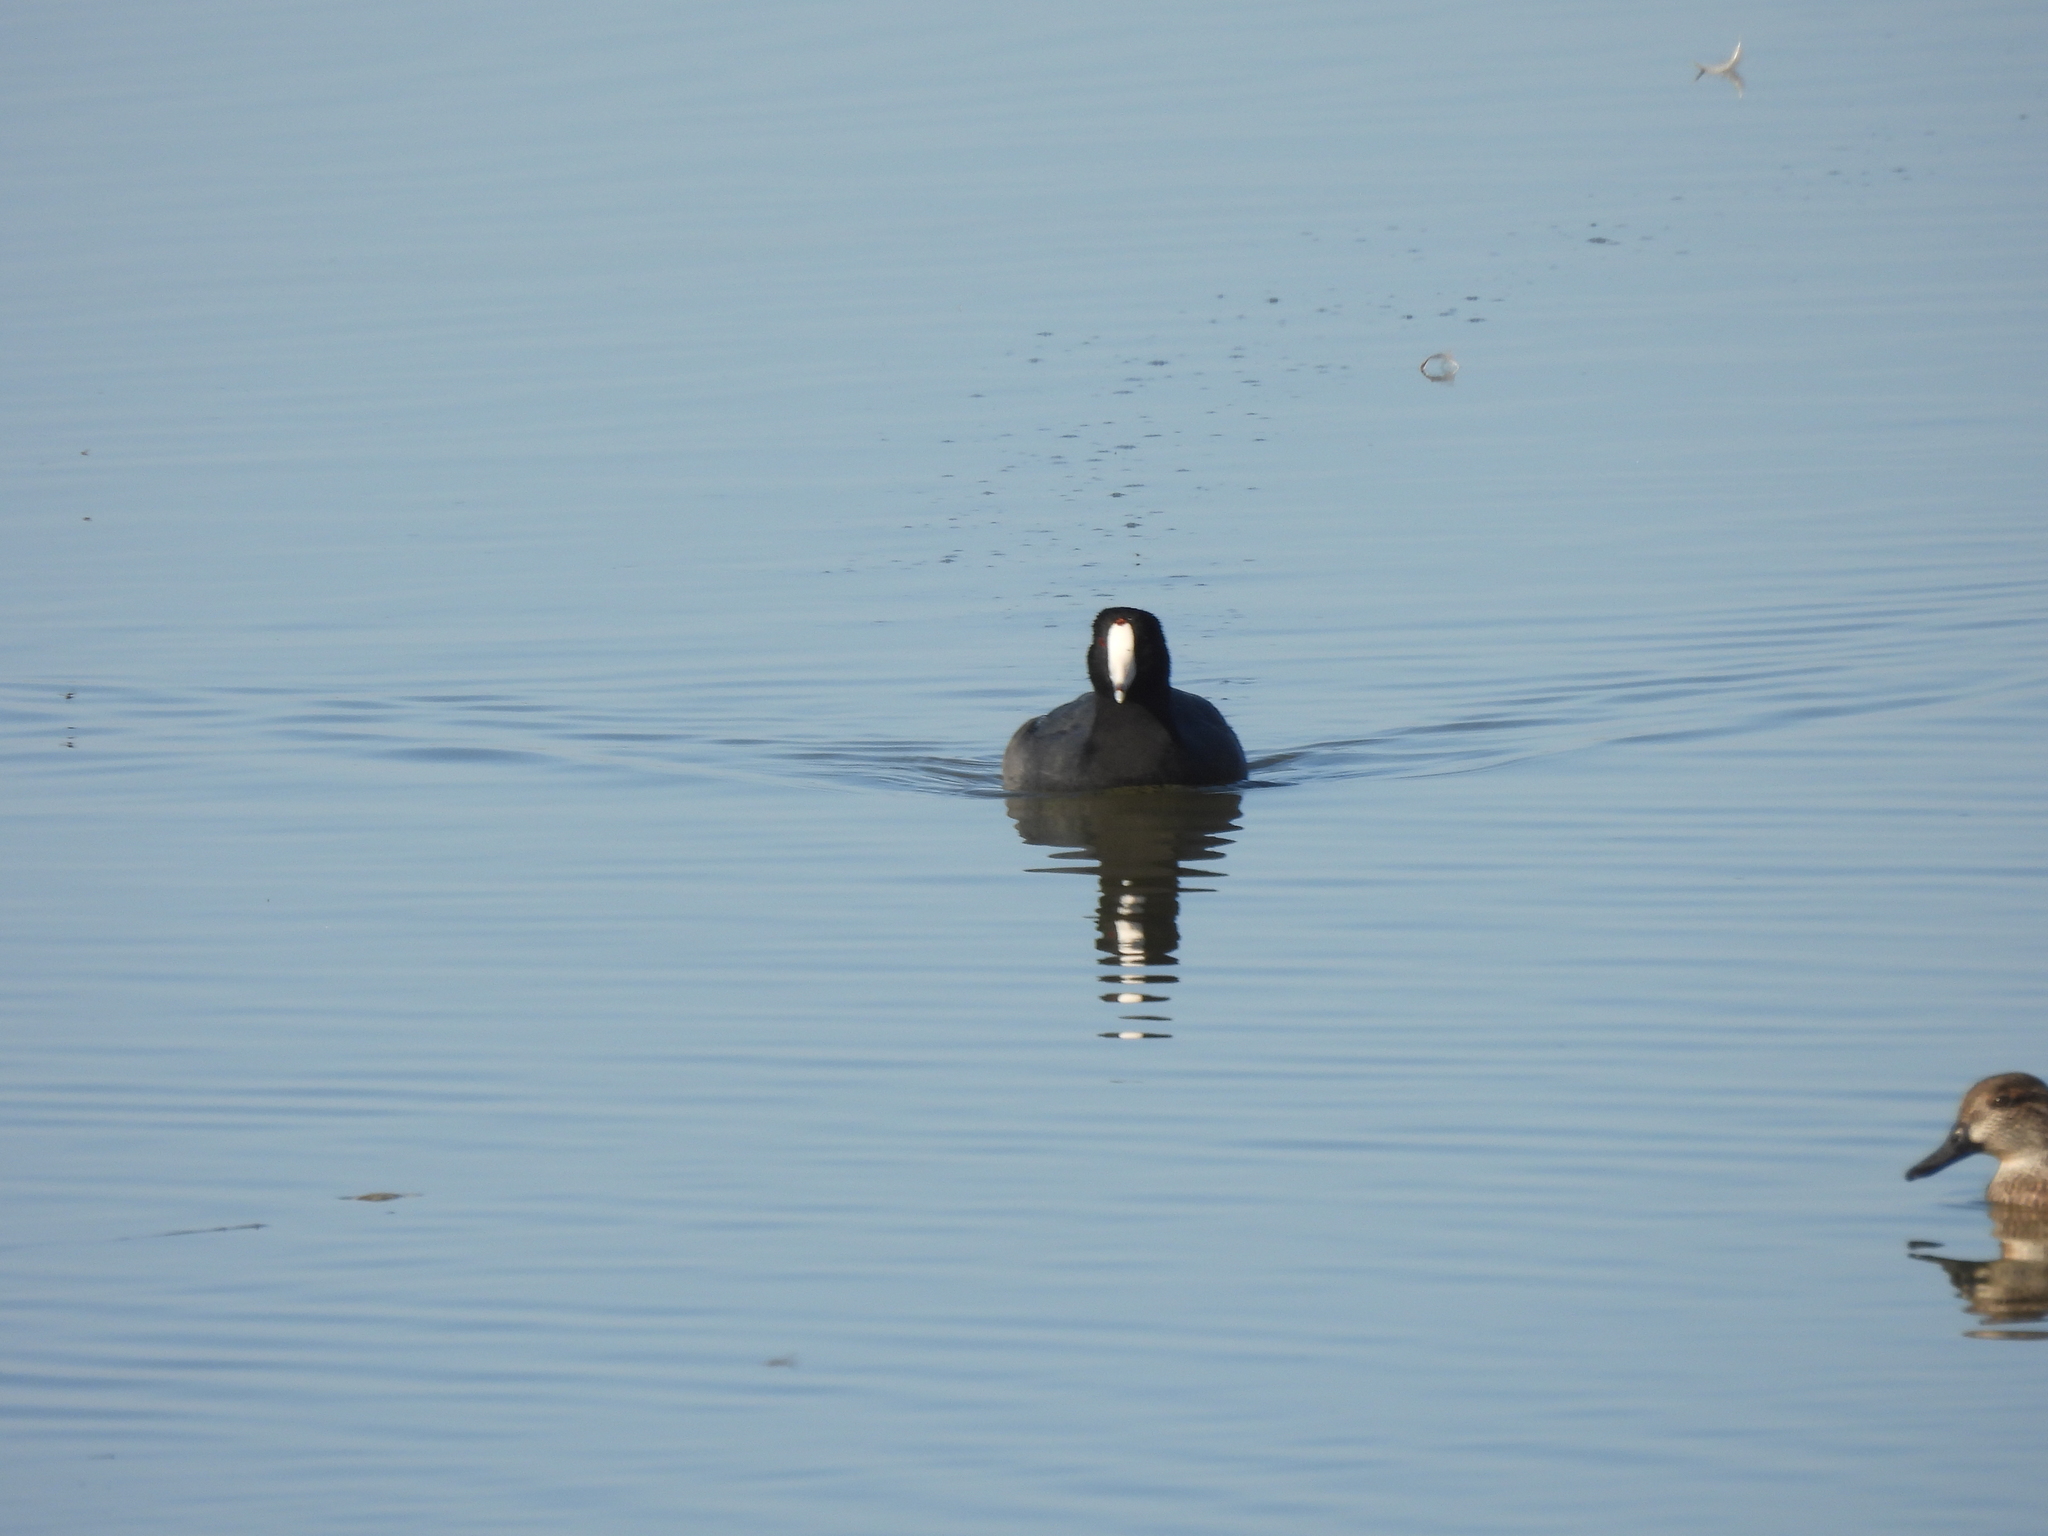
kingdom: Animalia
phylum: Chordata
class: Aves
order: Gruiformes
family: Rallidae
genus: Fulica
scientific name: Fulica americana
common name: American coot
